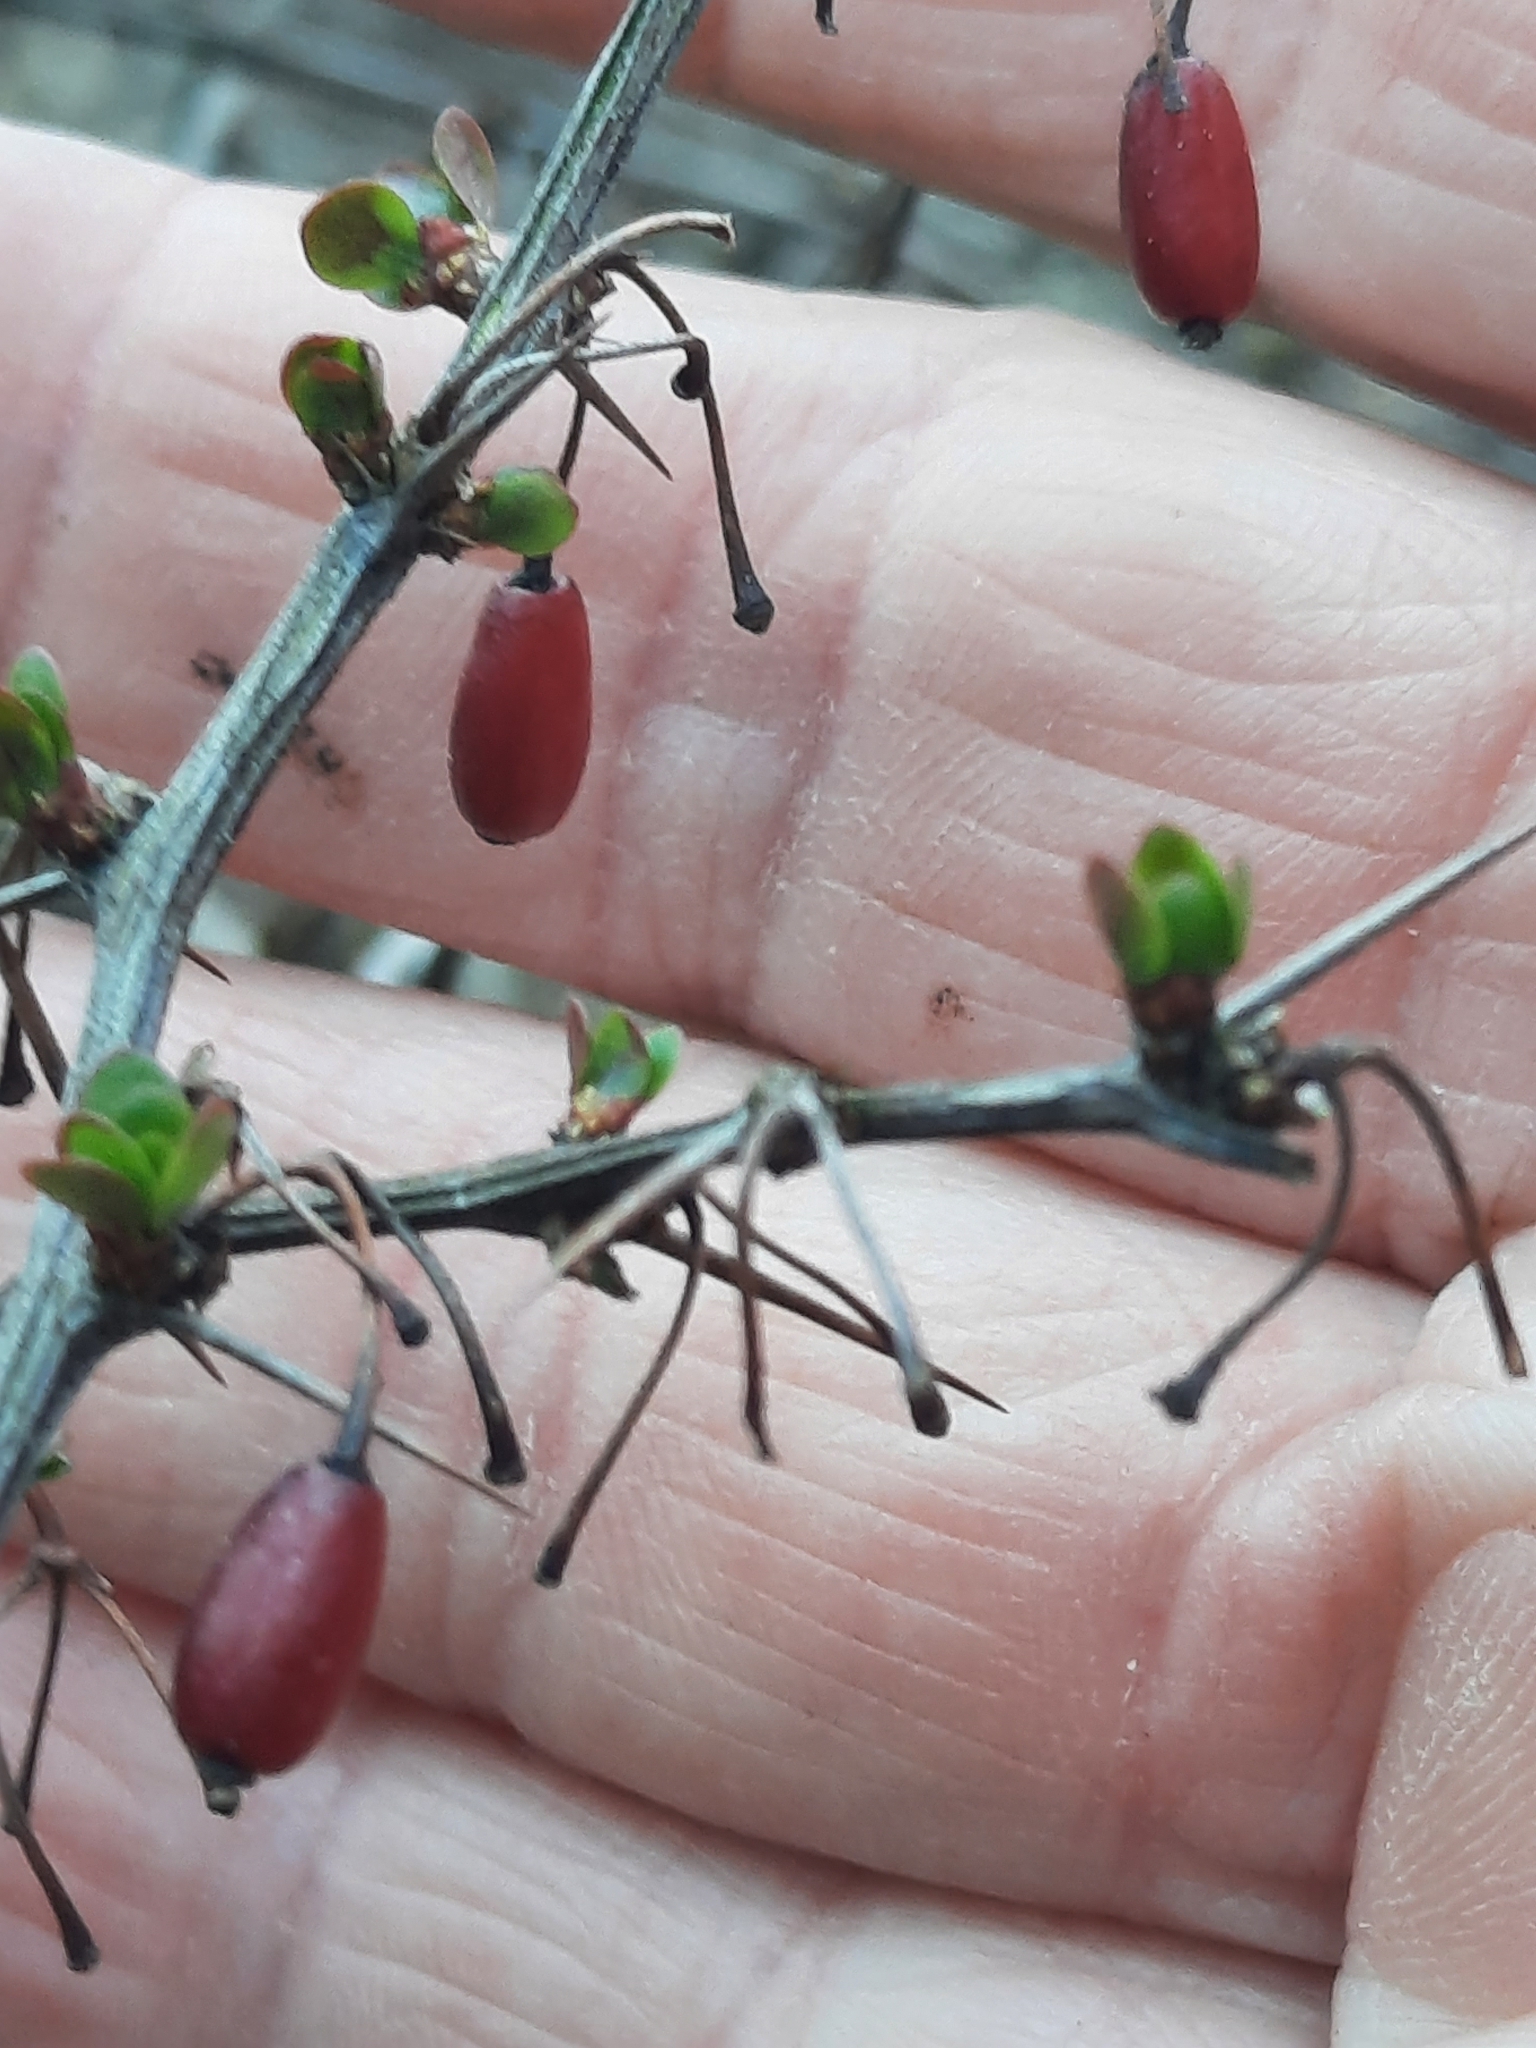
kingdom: Plantae
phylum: Tracheophyta
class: Magnoliopsida
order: Ranunculales
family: Berberidaceae
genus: Berberis
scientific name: Berberis thunbergii
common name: Japanese barberry
